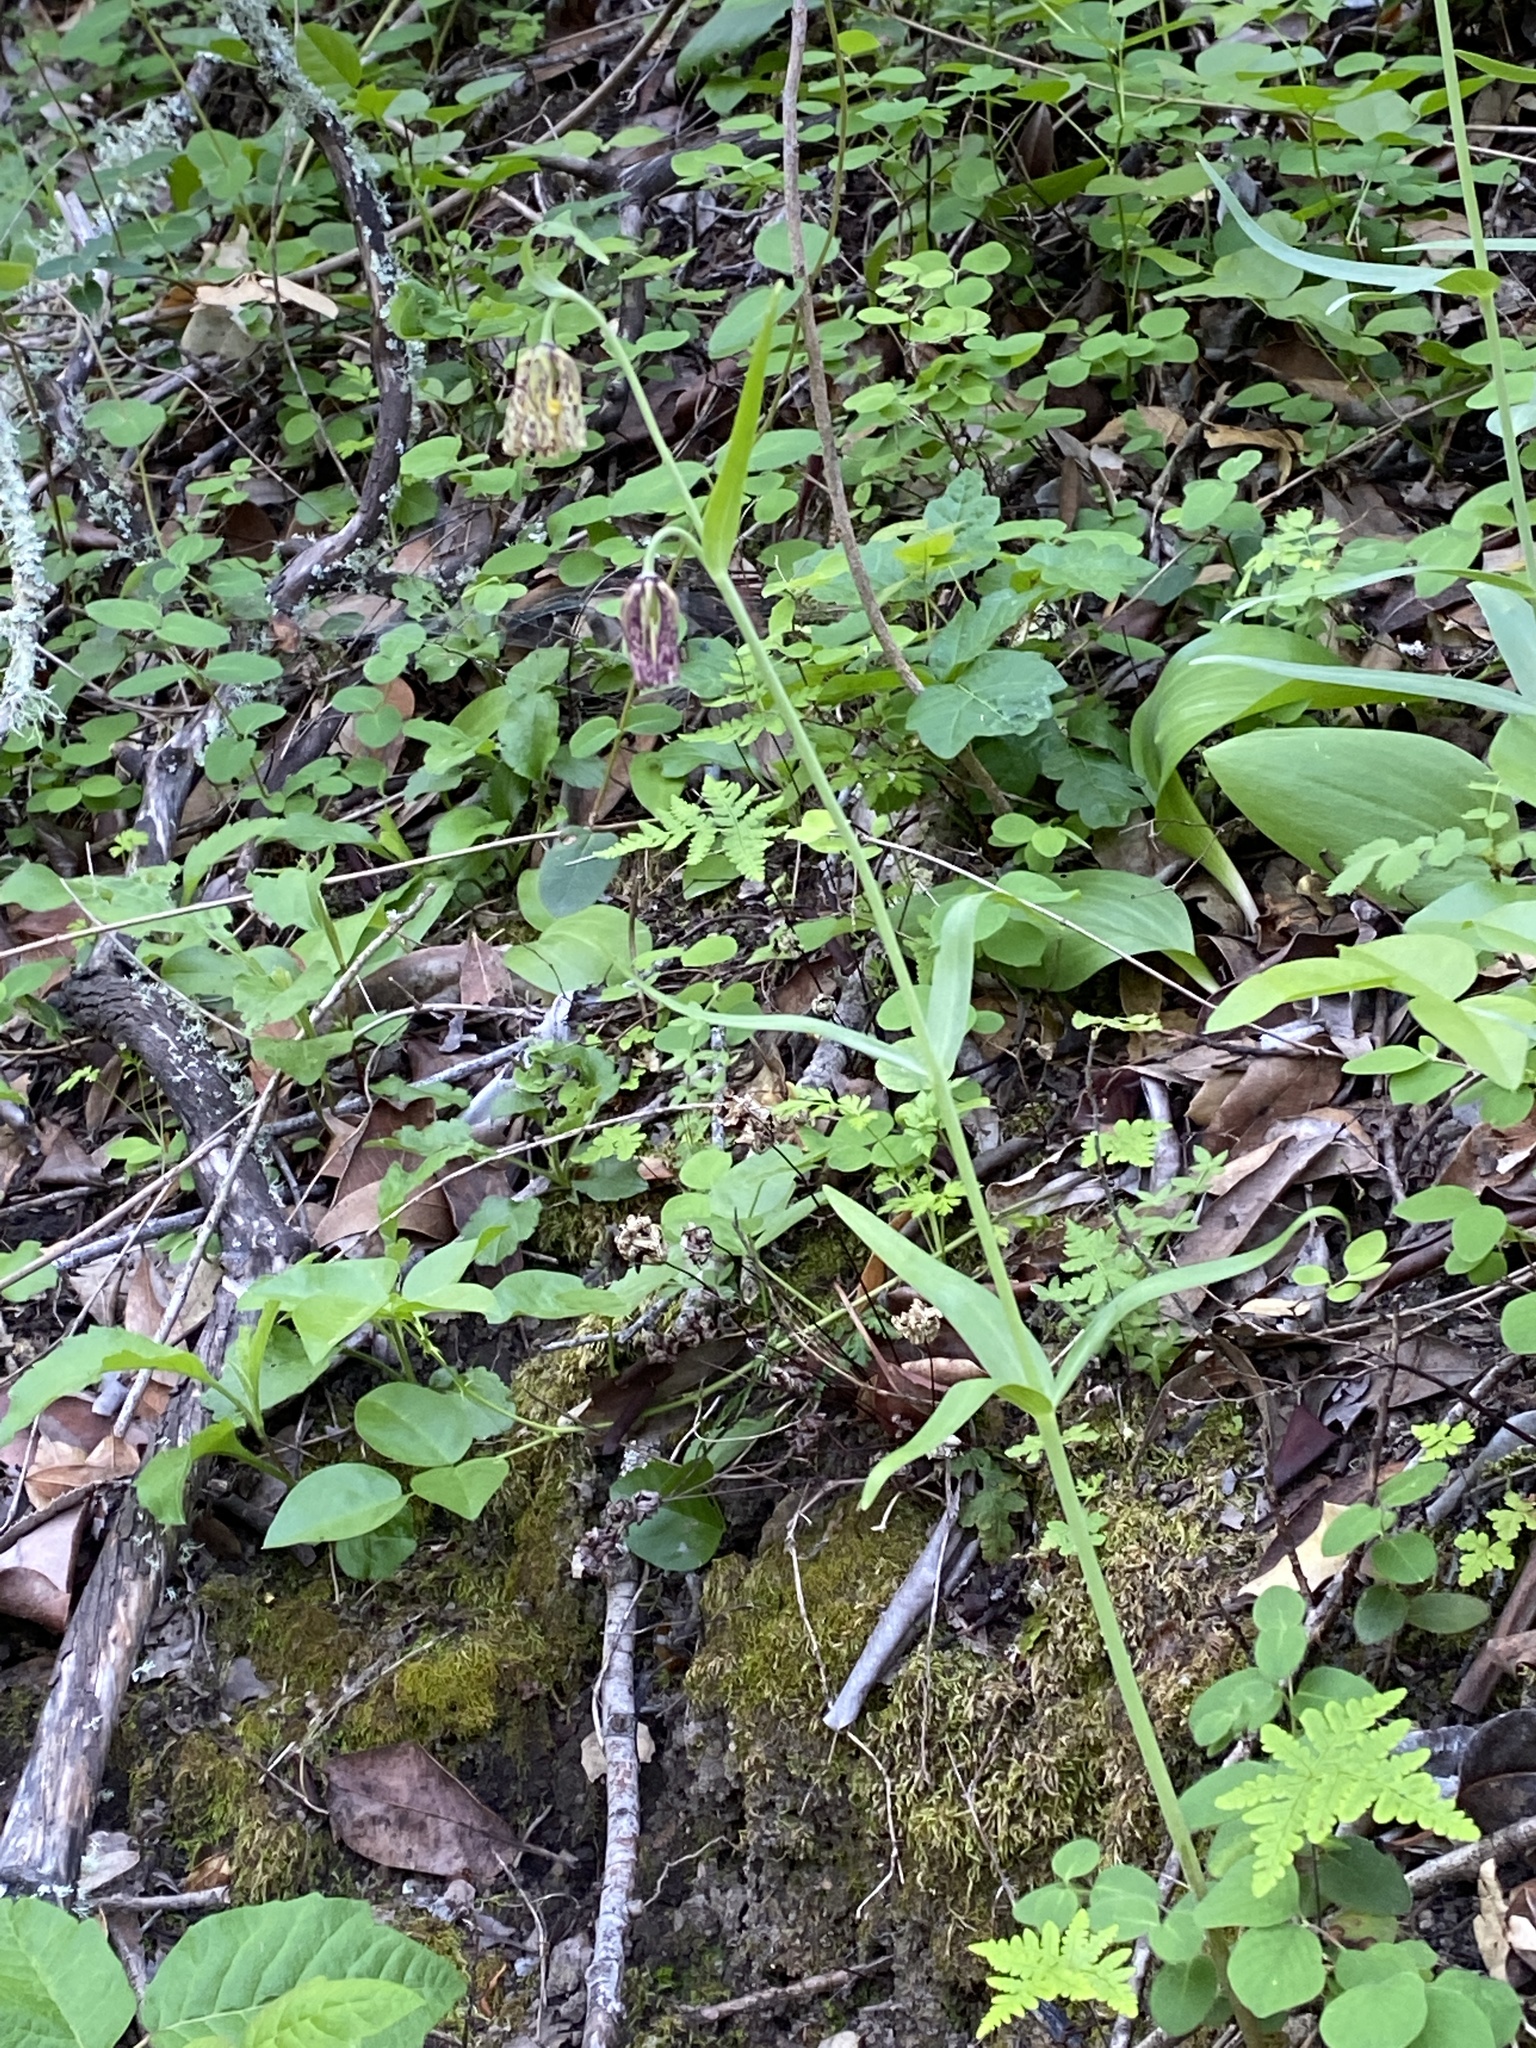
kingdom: Plantae
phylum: Tracheophyta
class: Liliopsida
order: Liliales
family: Liliaceae
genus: Fritillaria
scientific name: Fritillaria affinis
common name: Ojai fritillary
